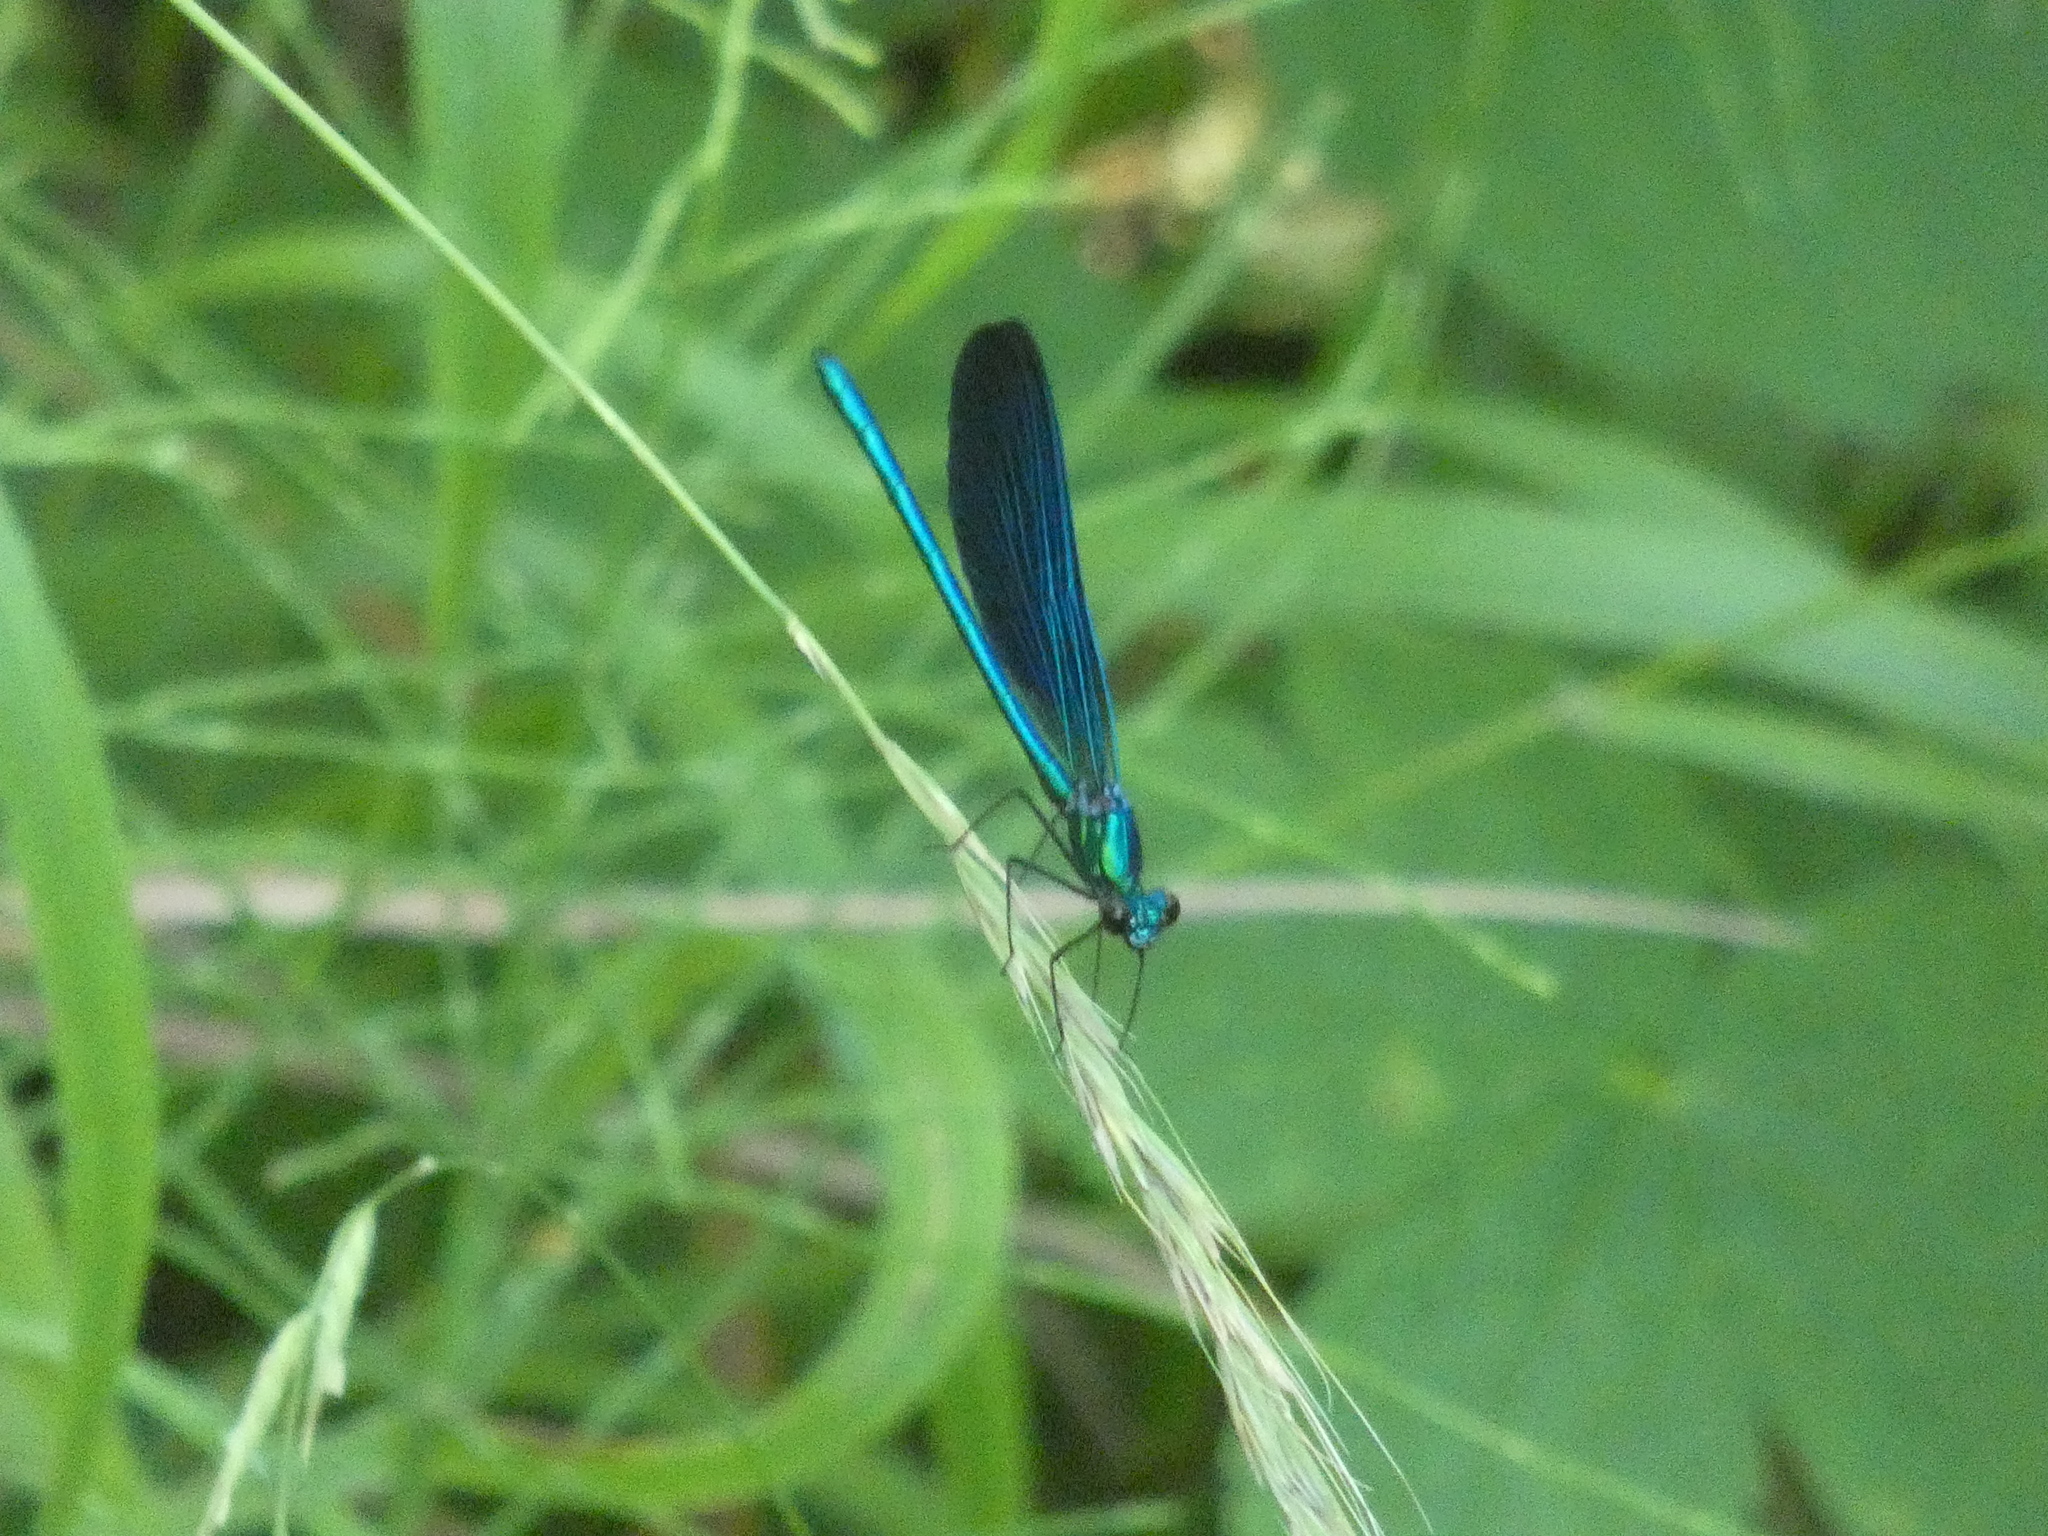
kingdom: Animalia
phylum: Arthropoda
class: Insecta
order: Odonata
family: Calopterygidae
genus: Calopteryx
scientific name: Calopteryx virgo
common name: Beautiful demoiselle
